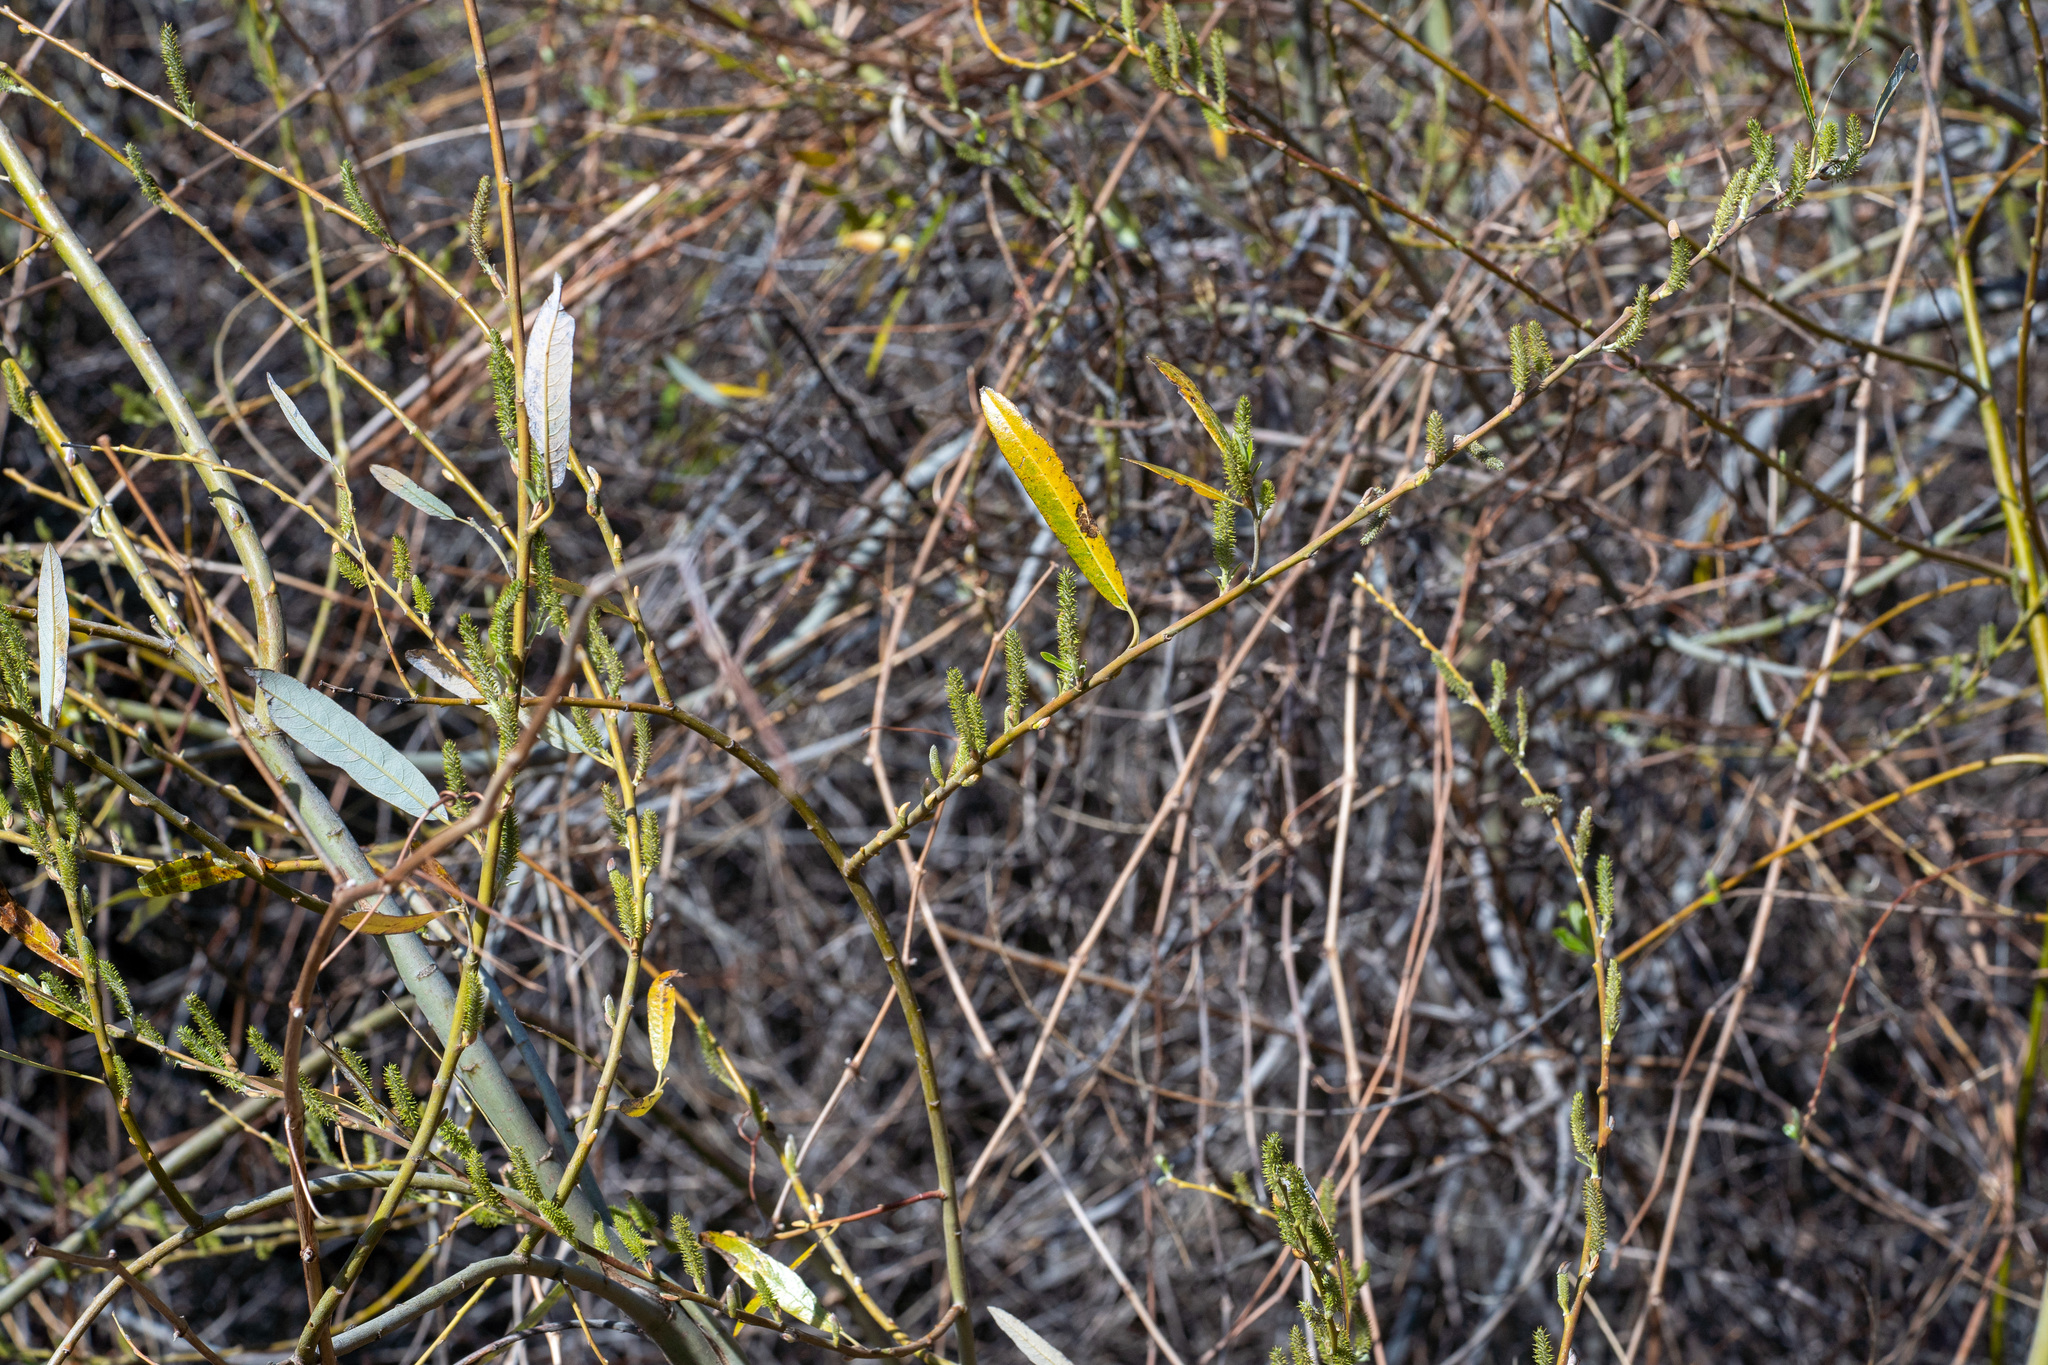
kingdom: Plantae
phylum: Tracheophyta
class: Magnoliopsida
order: Malpighiales
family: Salicaceae
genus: Salix
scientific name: Salix lasiolepis
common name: Arroyo willow
